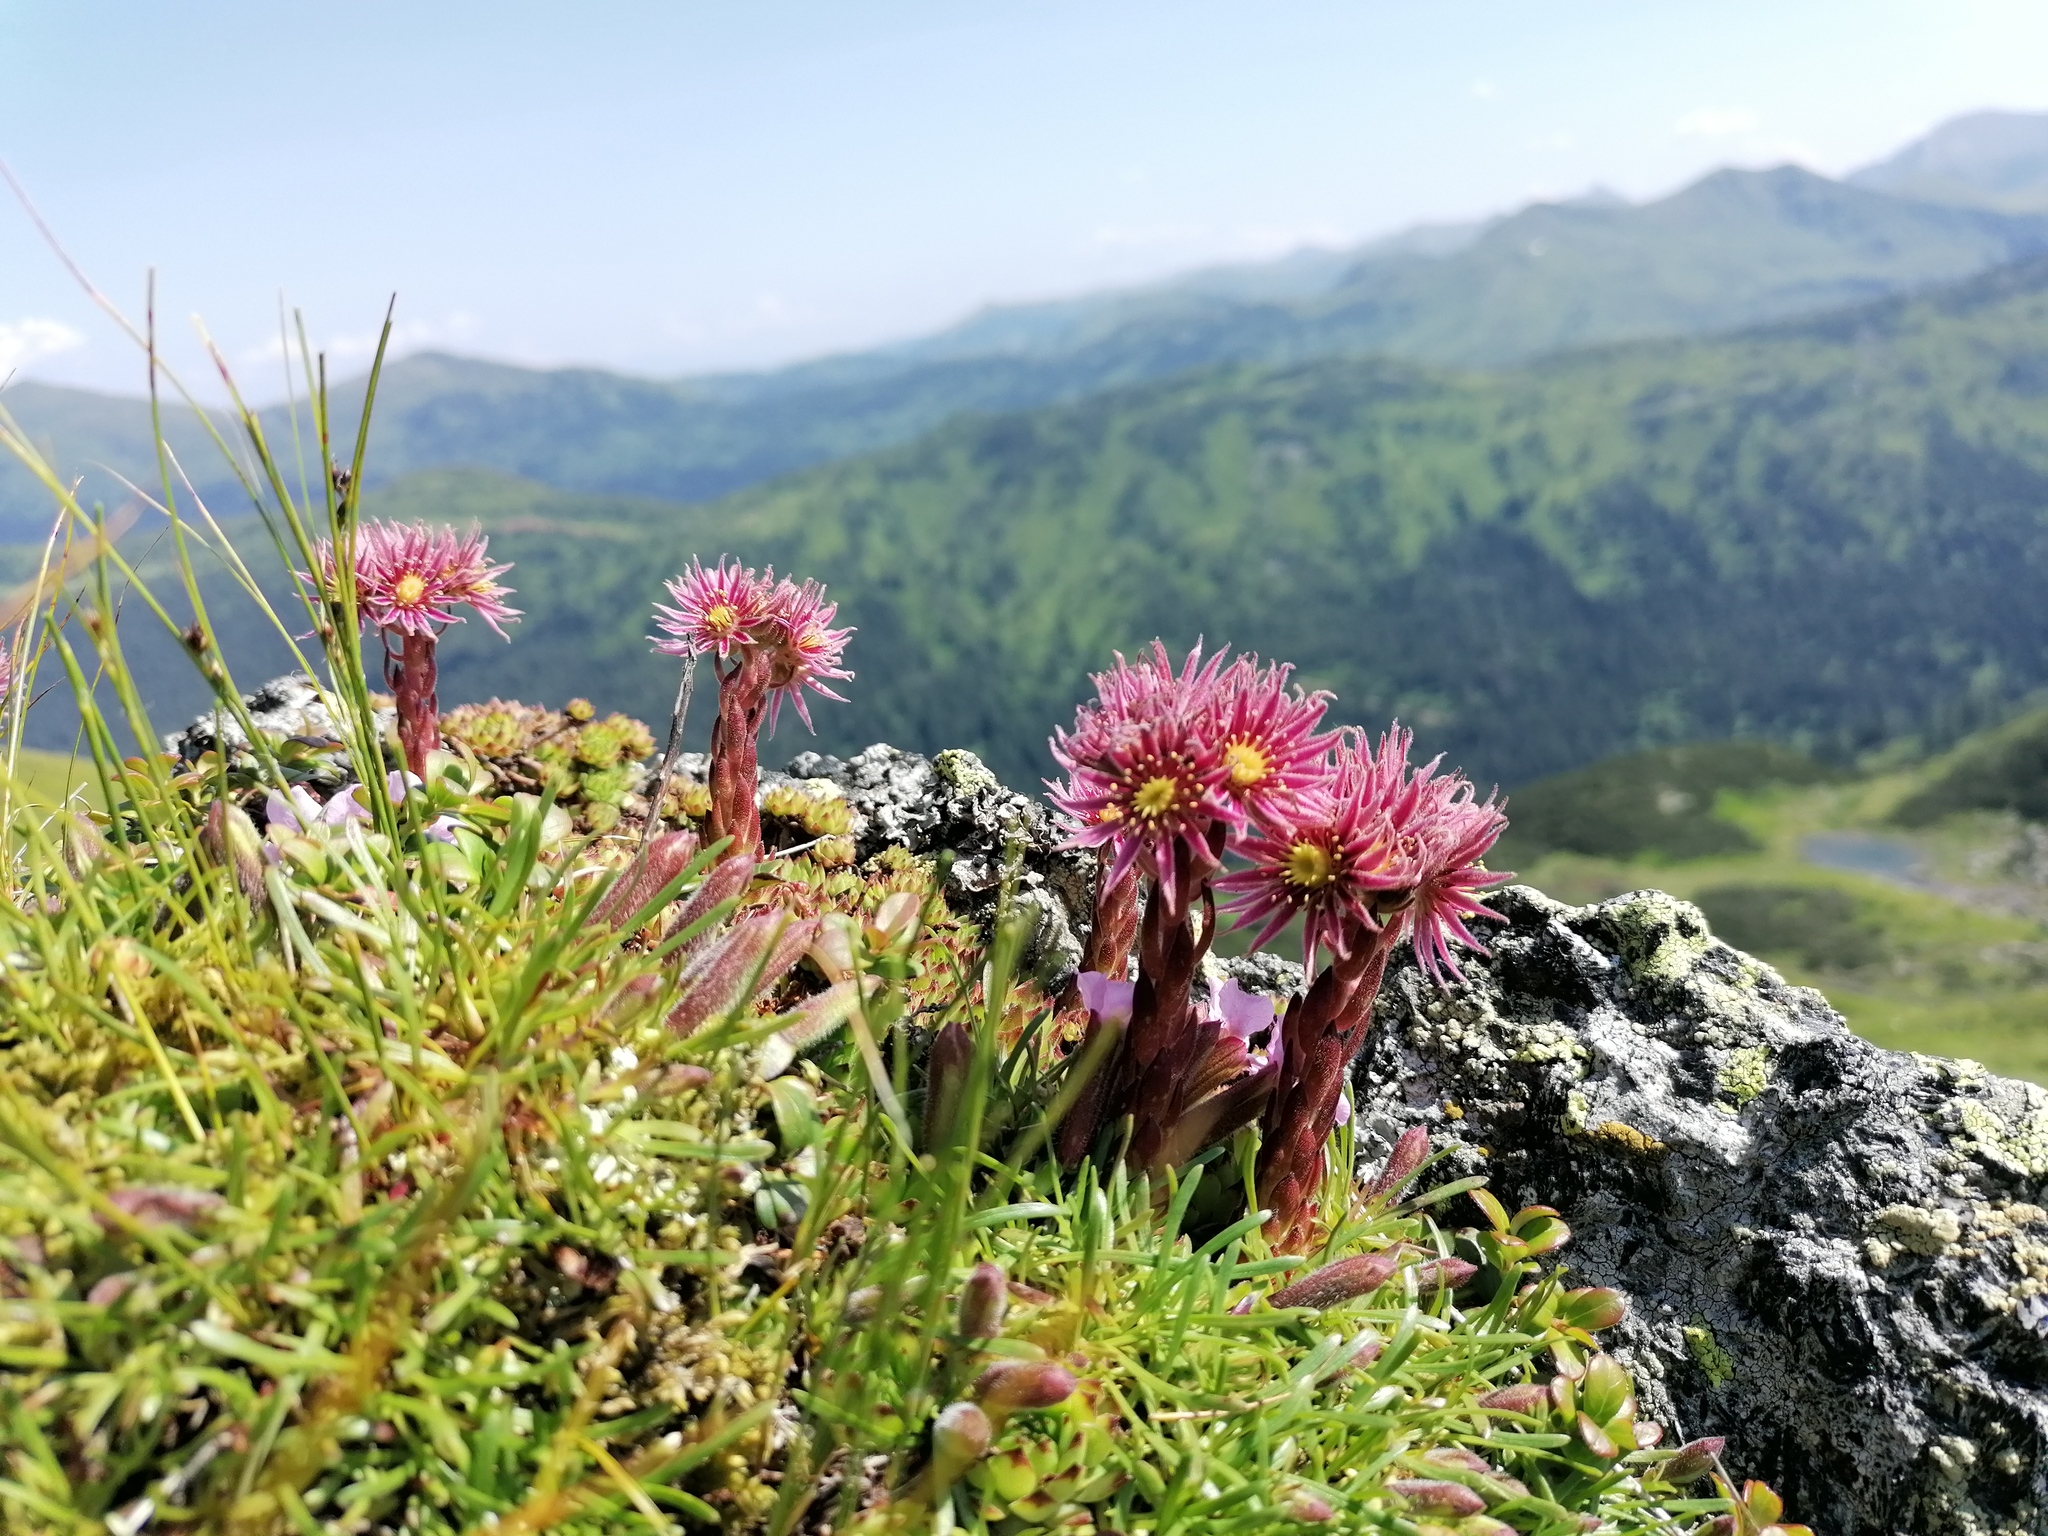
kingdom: Plantae
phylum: Tracheophyta
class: Magnoliopsida
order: Saxifragales
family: Crassulaceae
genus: Sempervivum
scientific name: Sempervivum montanum
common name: Mountain house-leek
